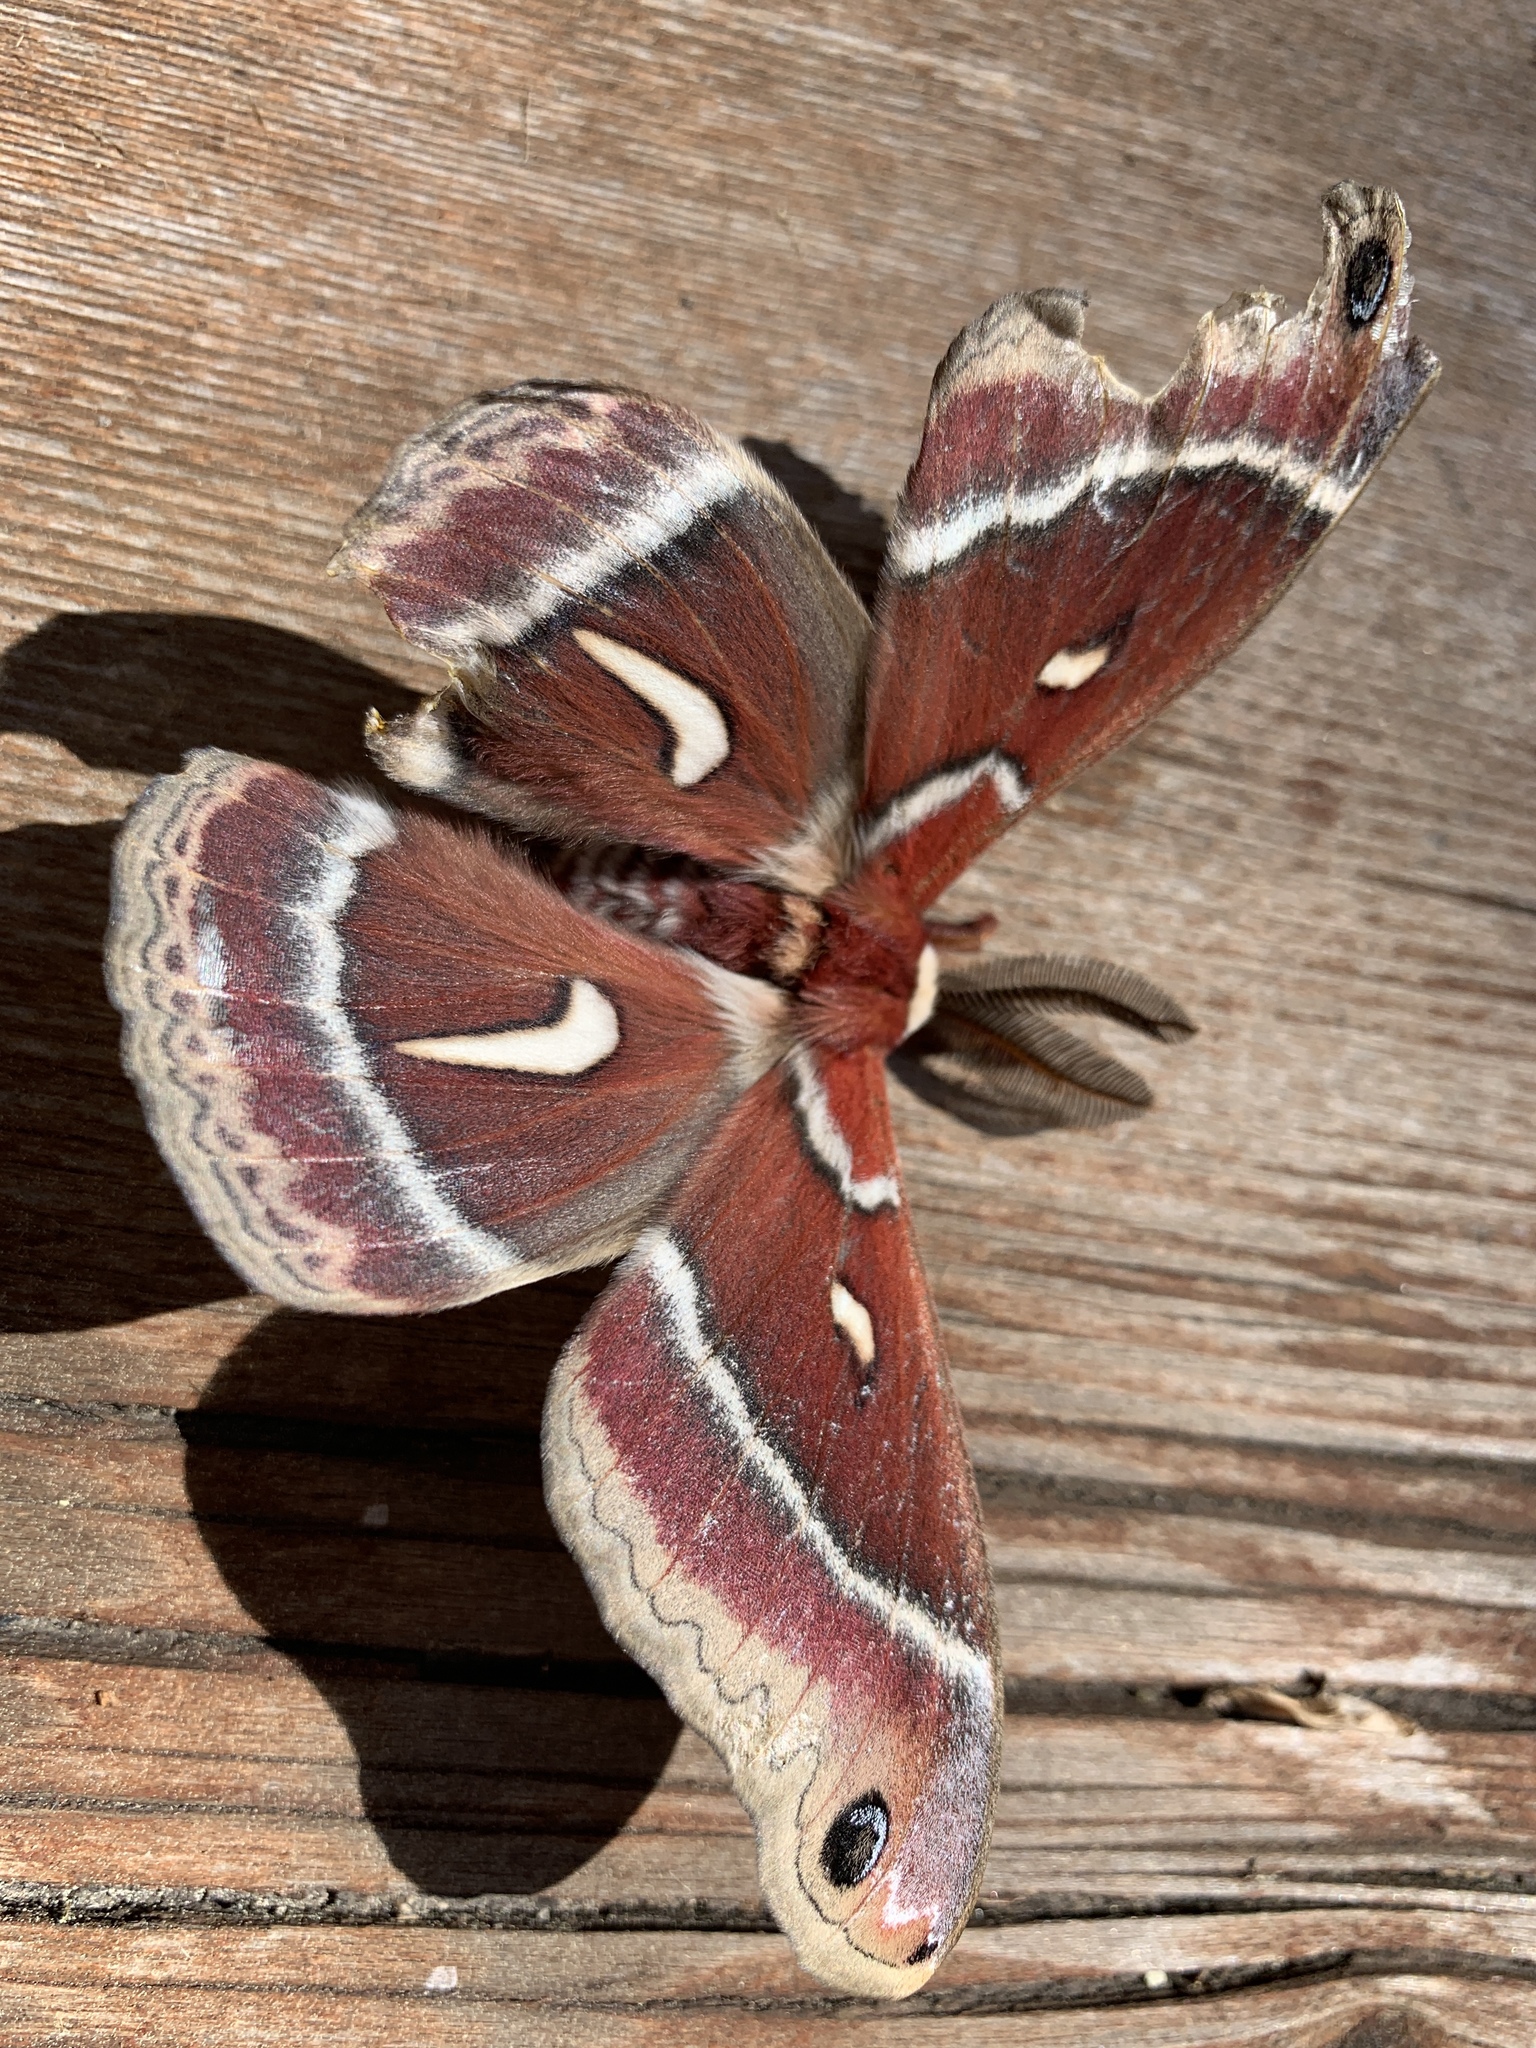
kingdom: Animalia
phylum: Arthropoda
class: Insecta
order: Lepidoptera
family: Saturniidae
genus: Hyalophora
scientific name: Hyalophora euryalus
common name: Ceanothus silkmoth
